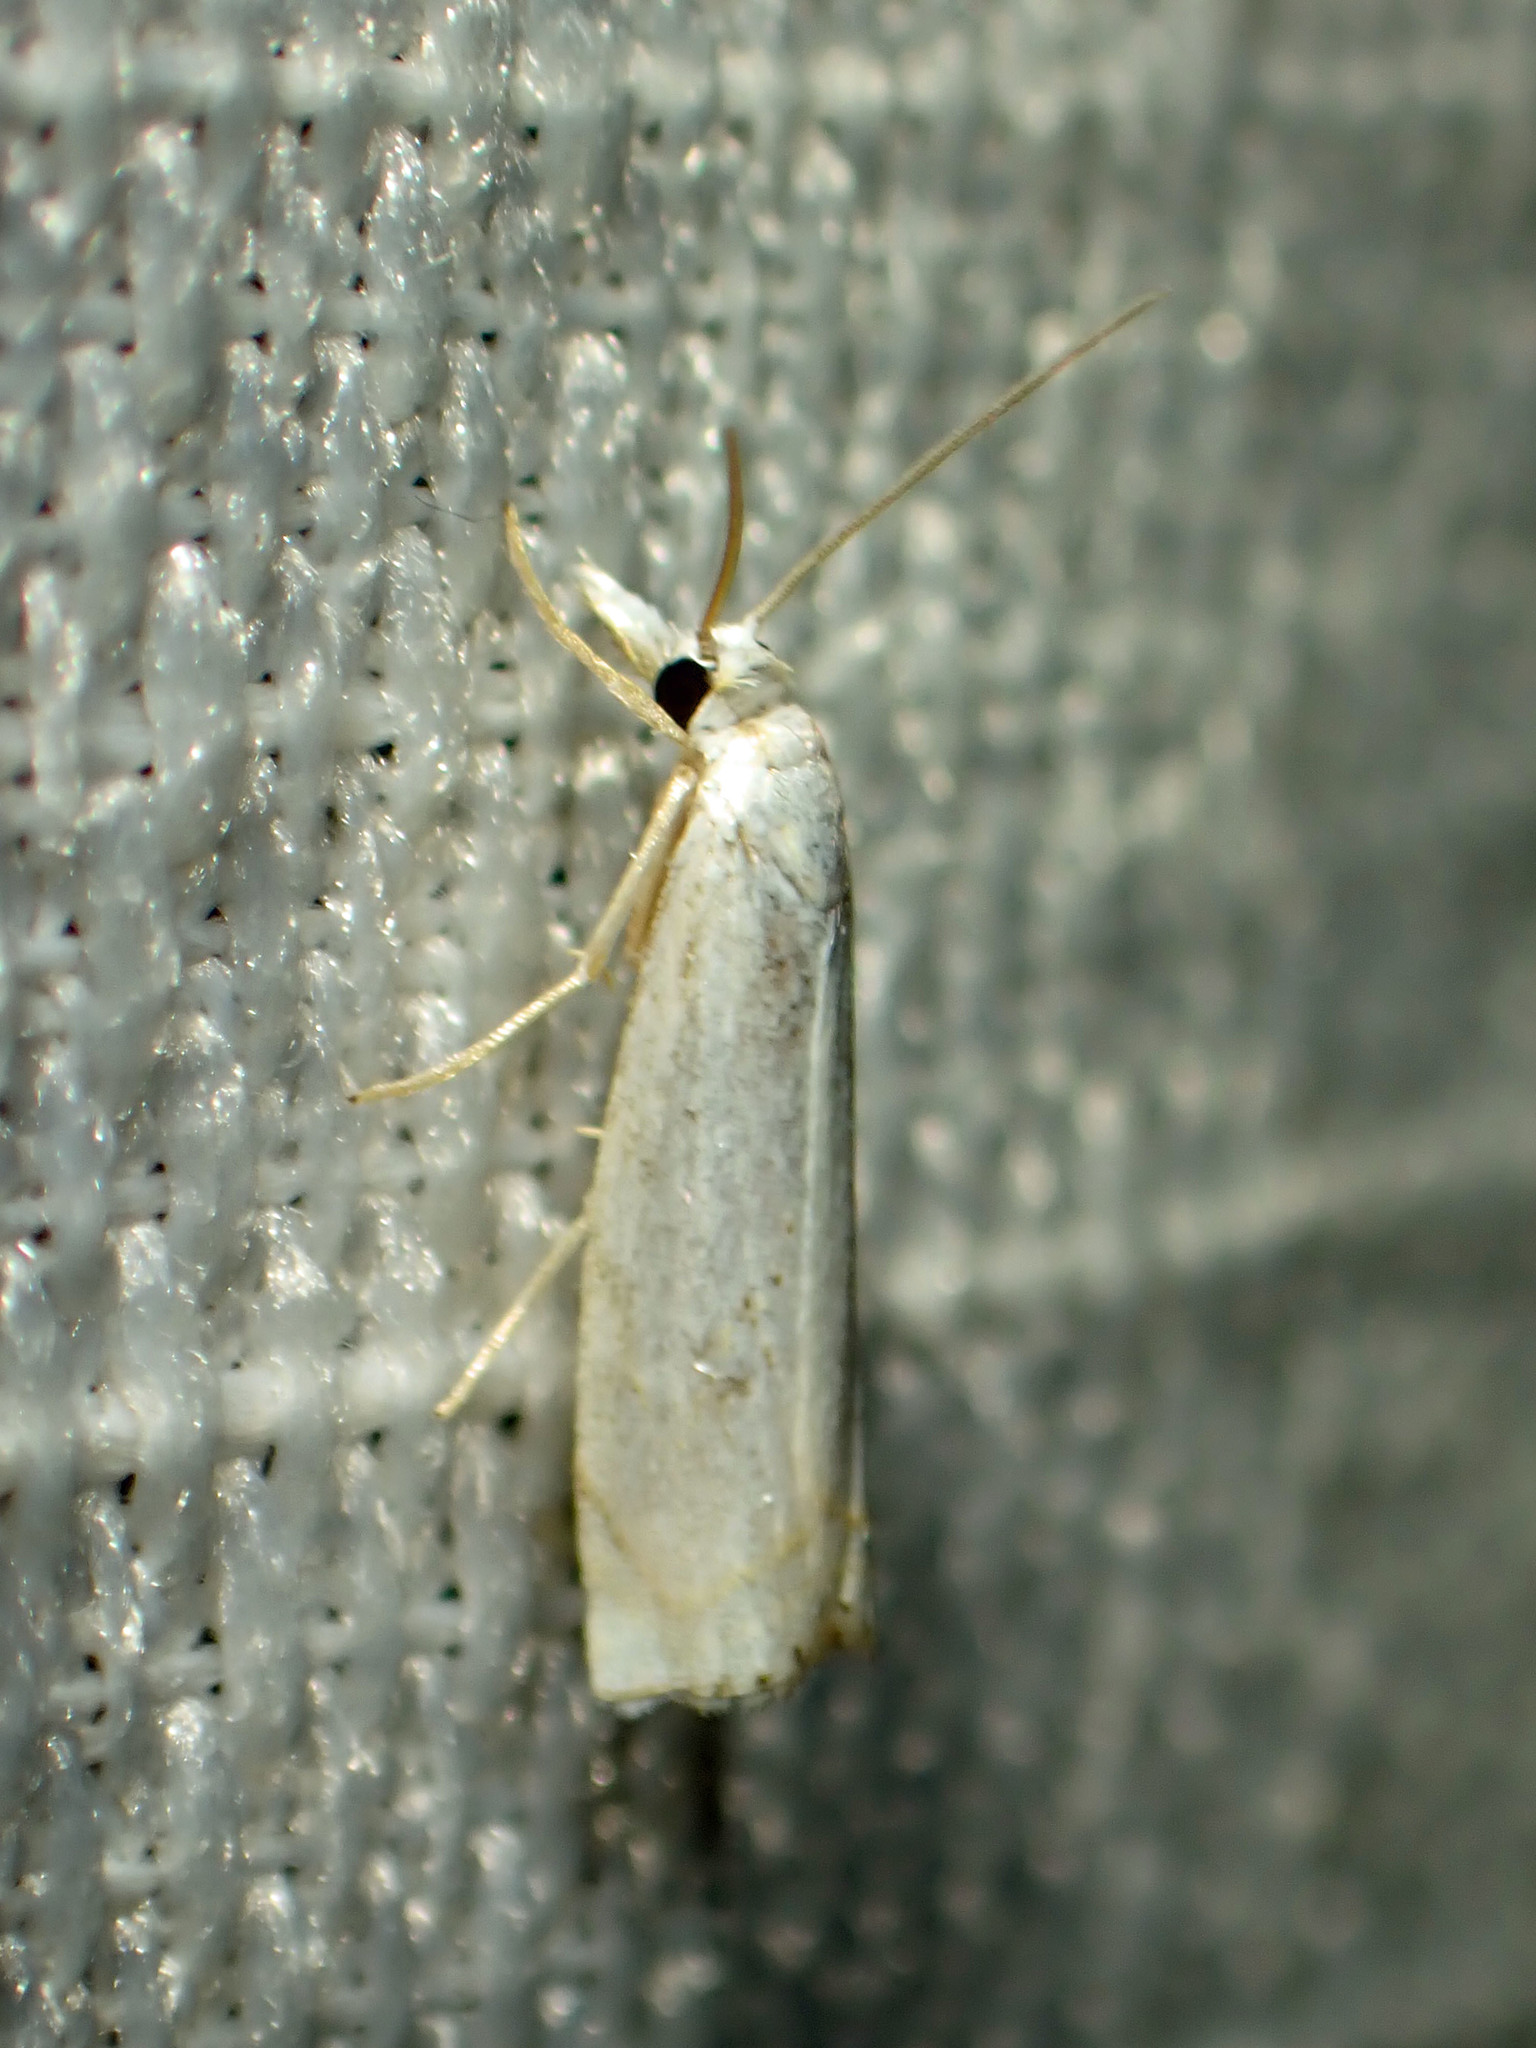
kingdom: Animalia
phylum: Arthropoda
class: Insecta
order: Lepidoptera
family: Crambidae
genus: Crambus
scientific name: Crambus albellus
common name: Small white grass-veneer
